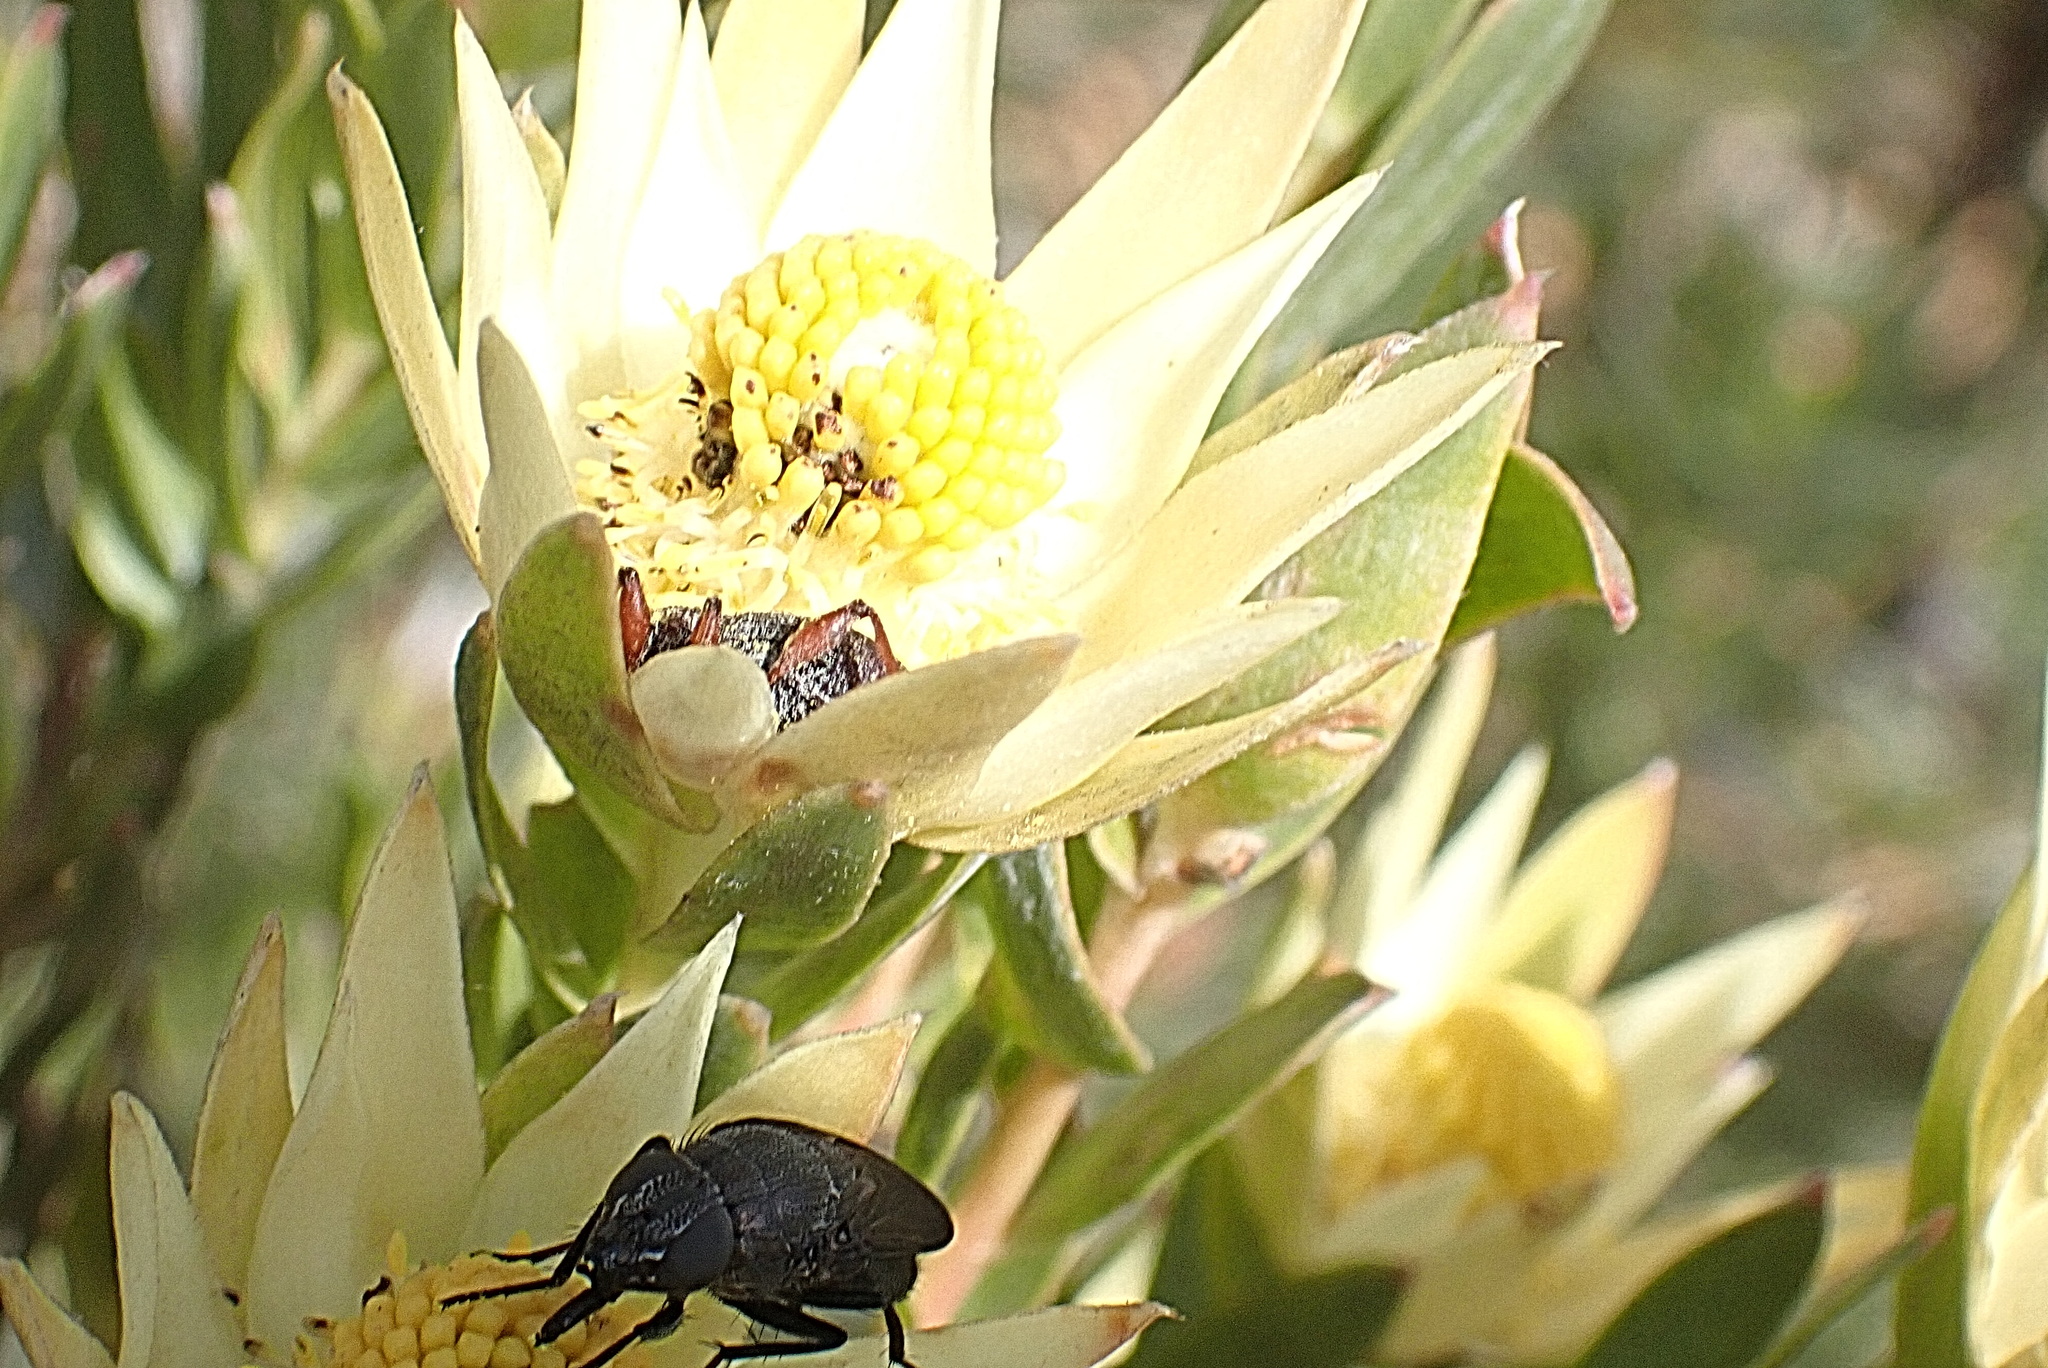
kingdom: Plantae
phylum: Tracheophyta
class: Magnoliopsida
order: Proteales
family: Proteaceae
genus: Leucadendron
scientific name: Leucadendron uliginosum
